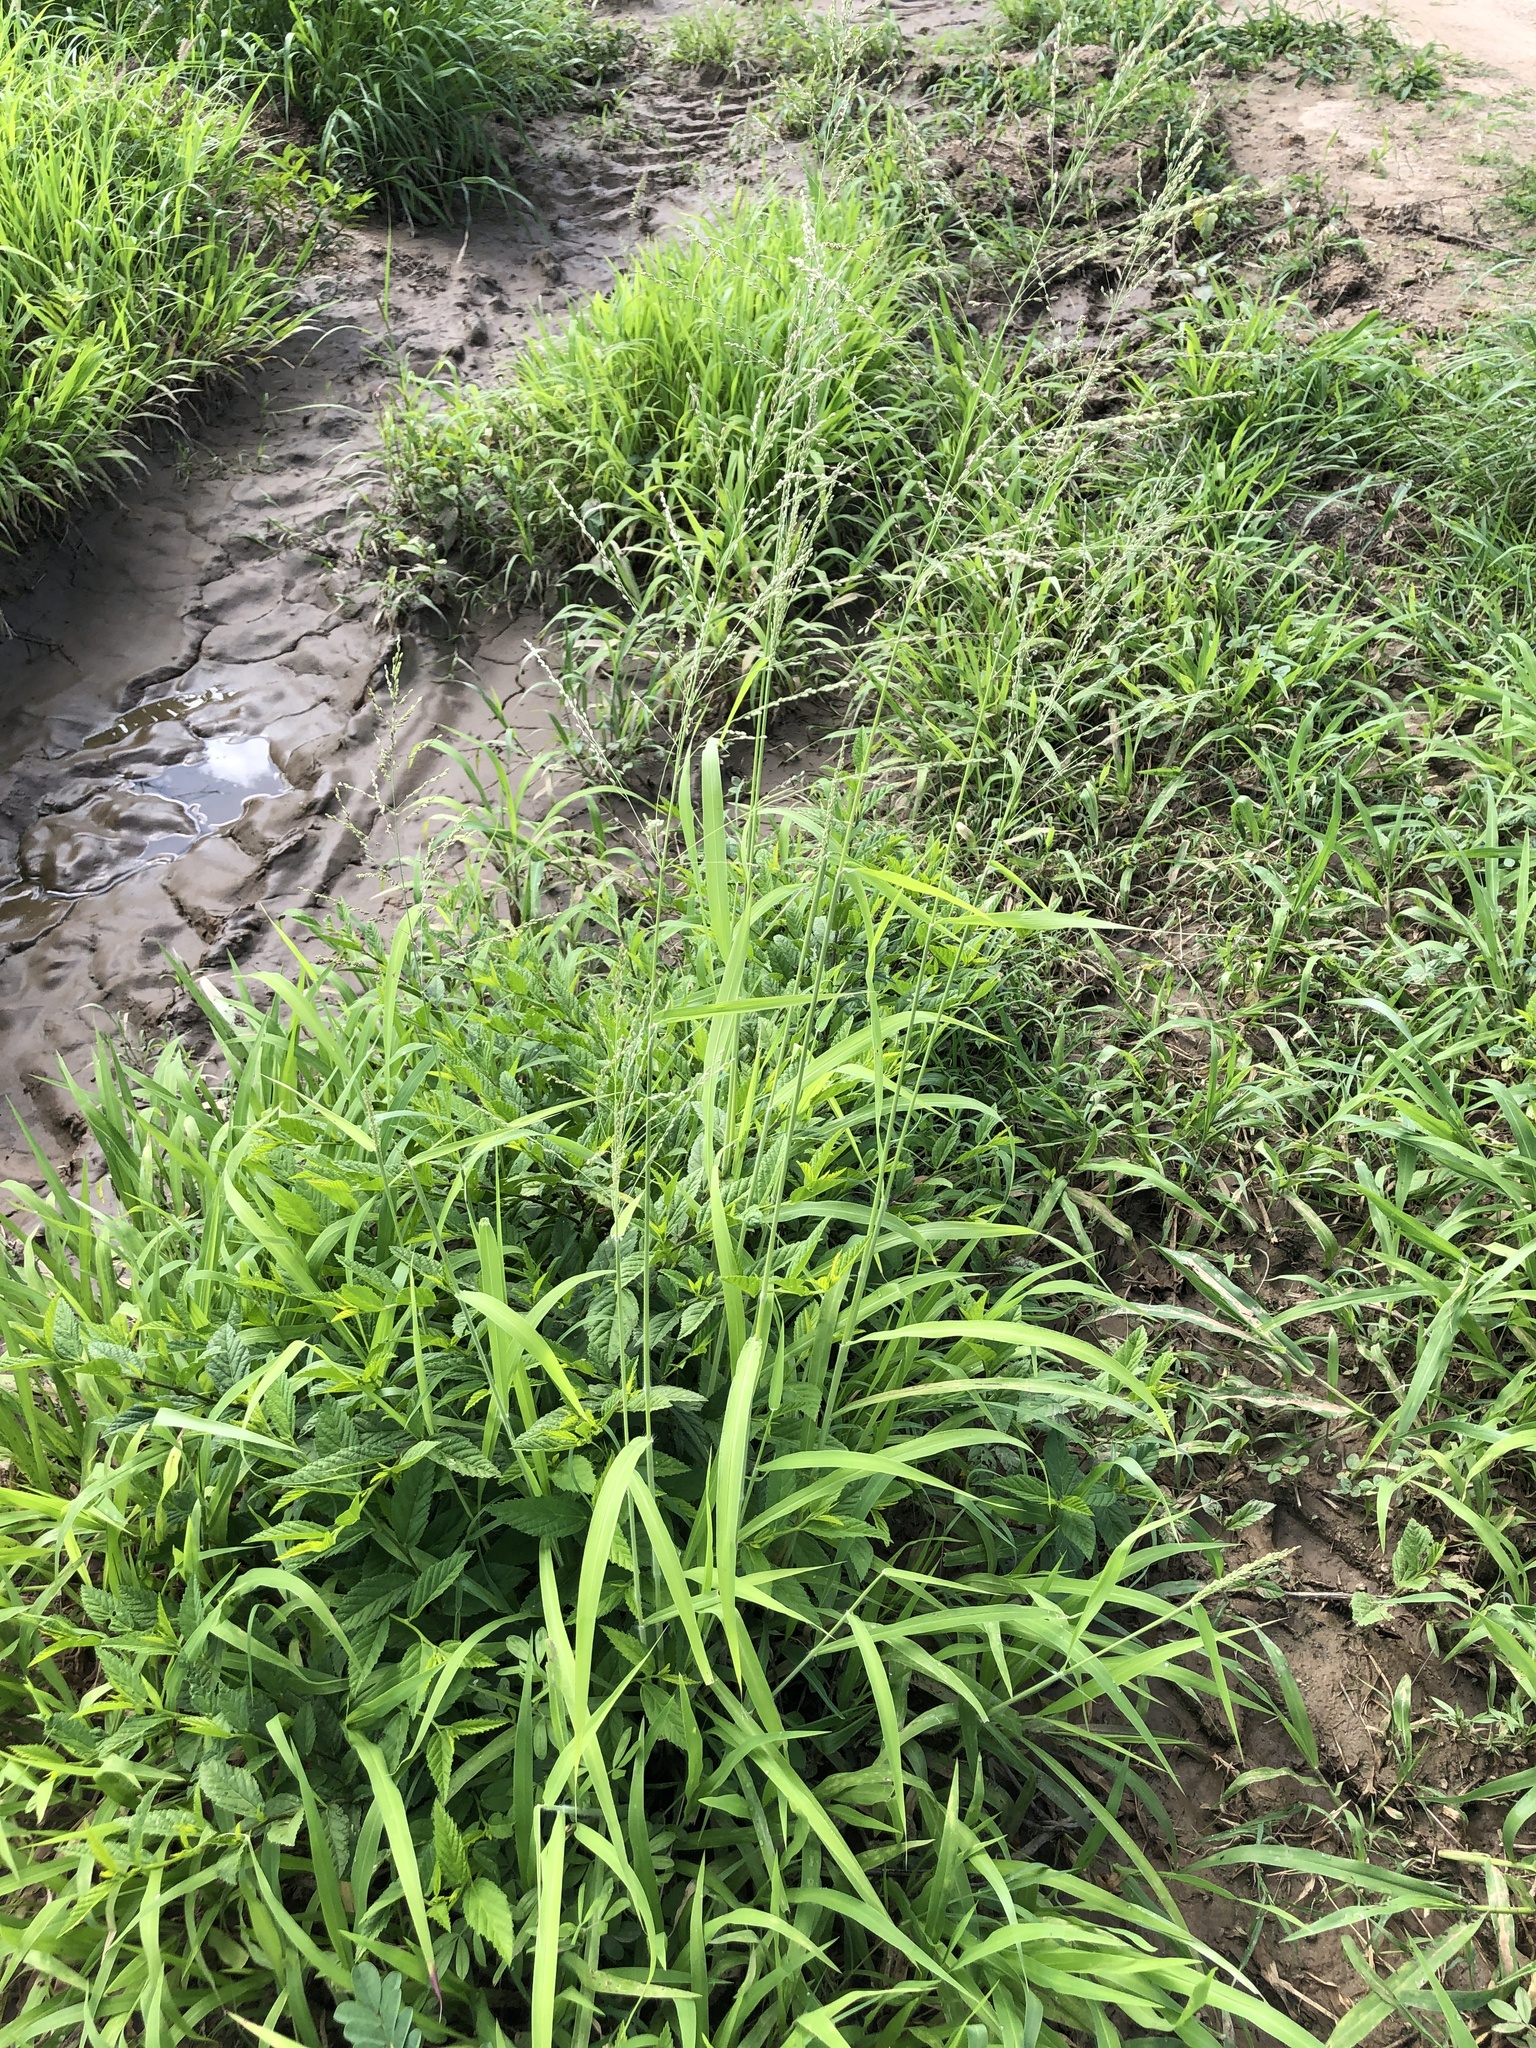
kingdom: Plantae
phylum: Tracheophyta
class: Liliopsida
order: Poales
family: Poaceae
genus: Megathyrsus
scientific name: Megathyrsus maximus
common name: Guineagrass
